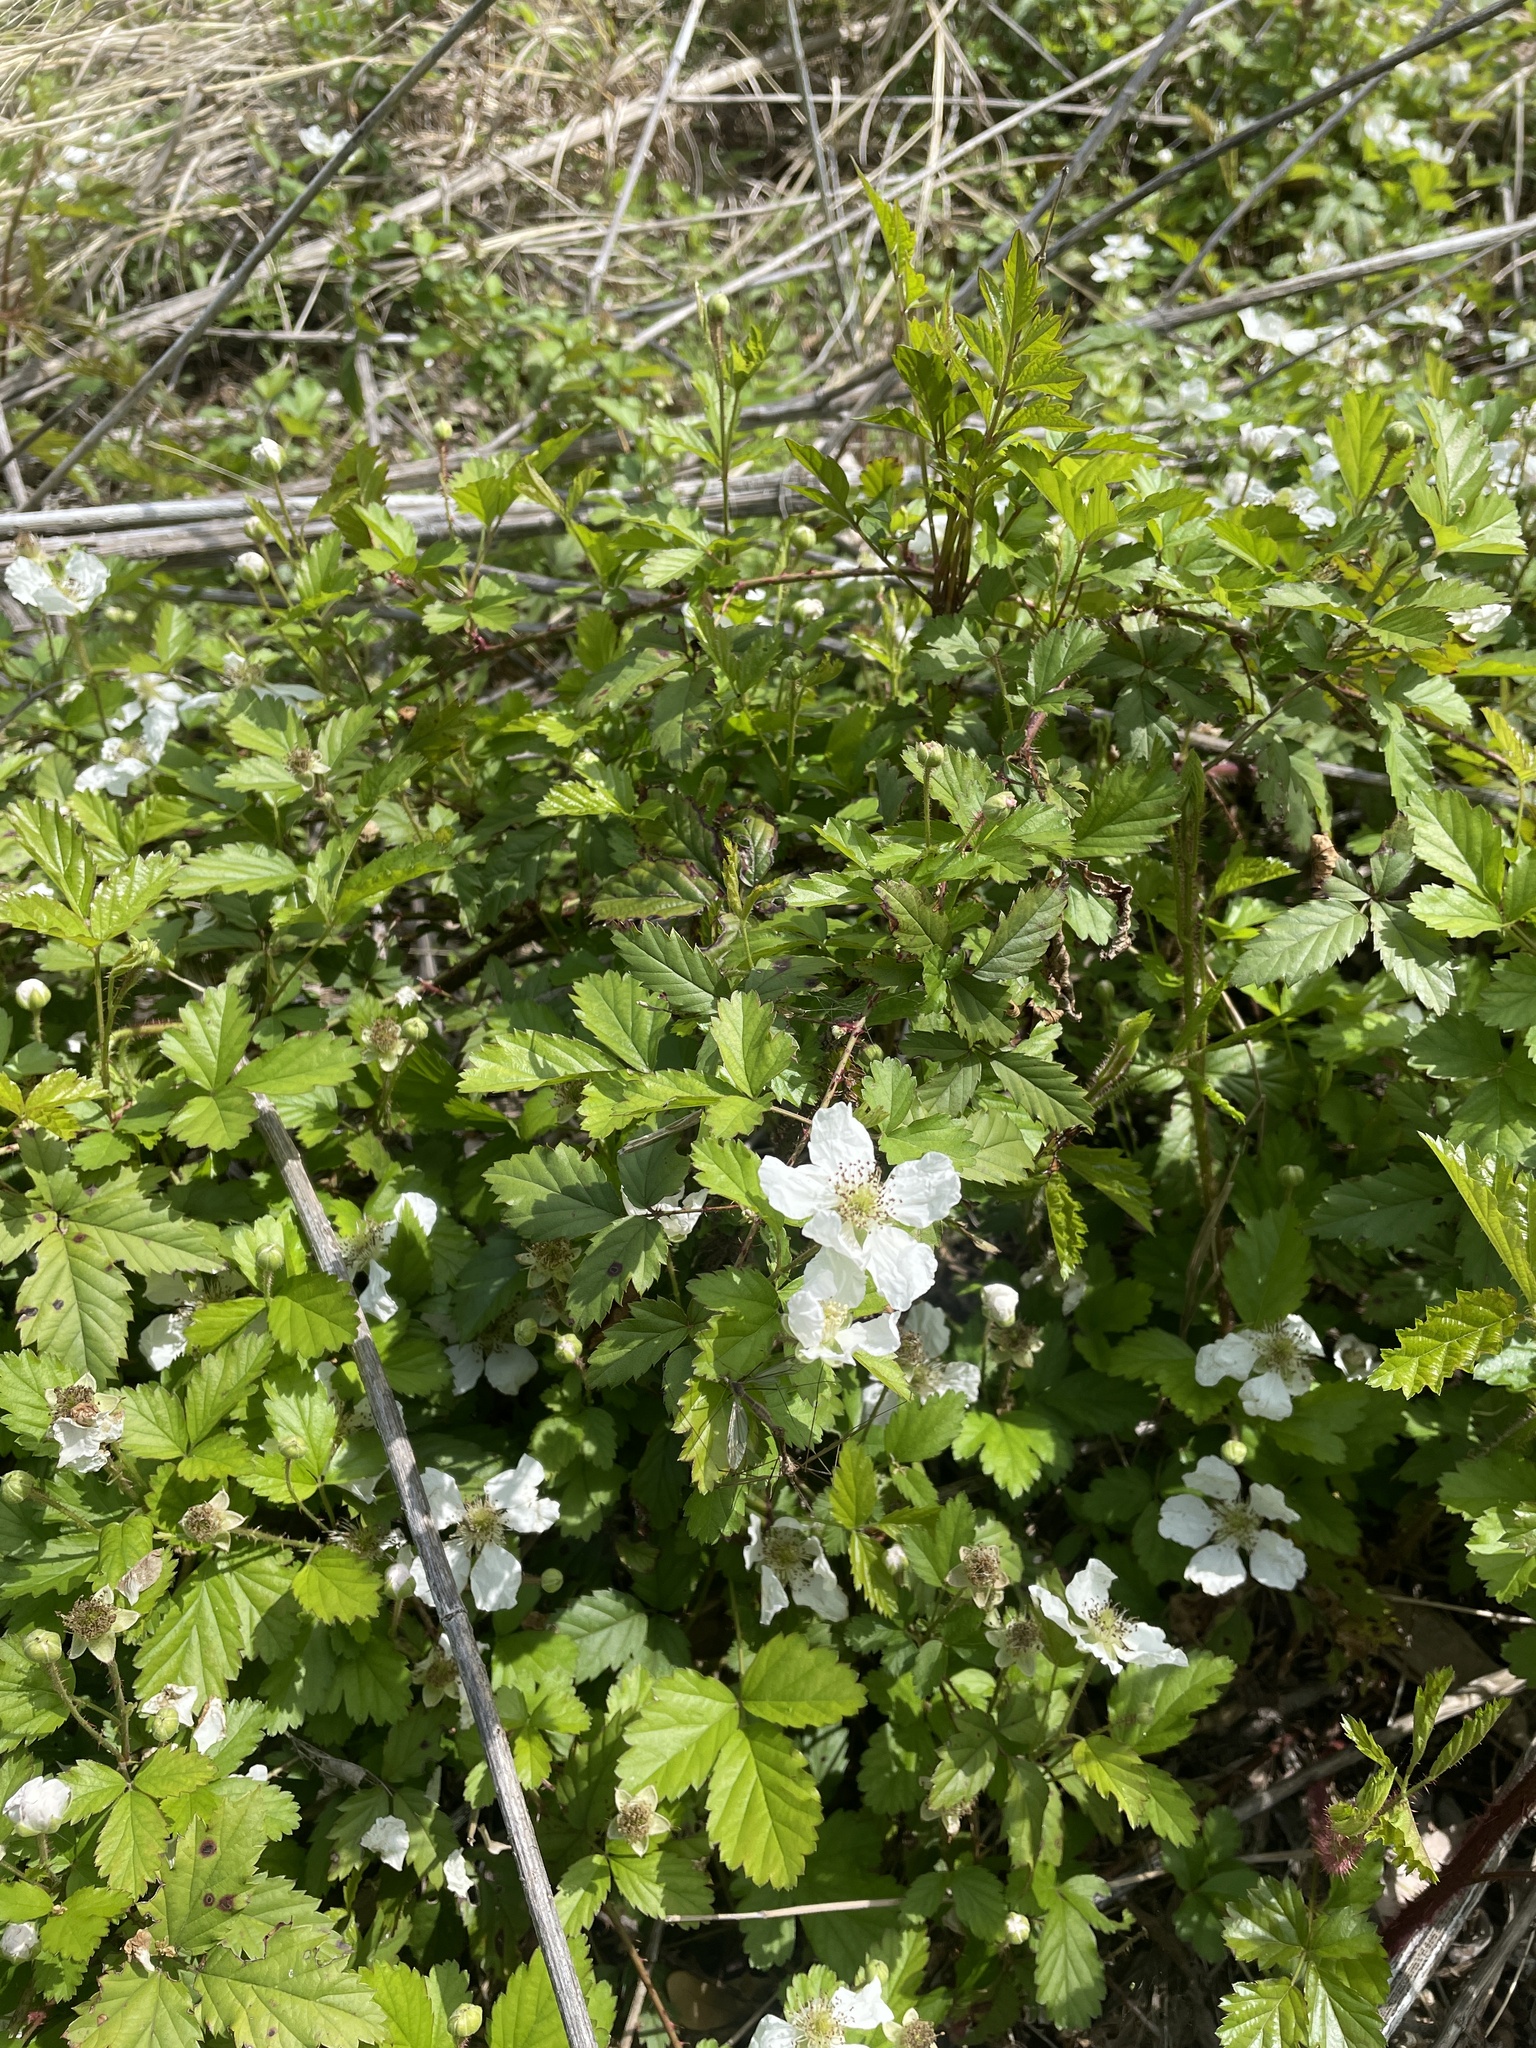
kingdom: Plantae
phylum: Tracheophyta
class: Magnoliopsida
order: Rosales
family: Rosaceae
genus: Rubus
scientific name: Rubus trivialis
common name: Southern dewberry
